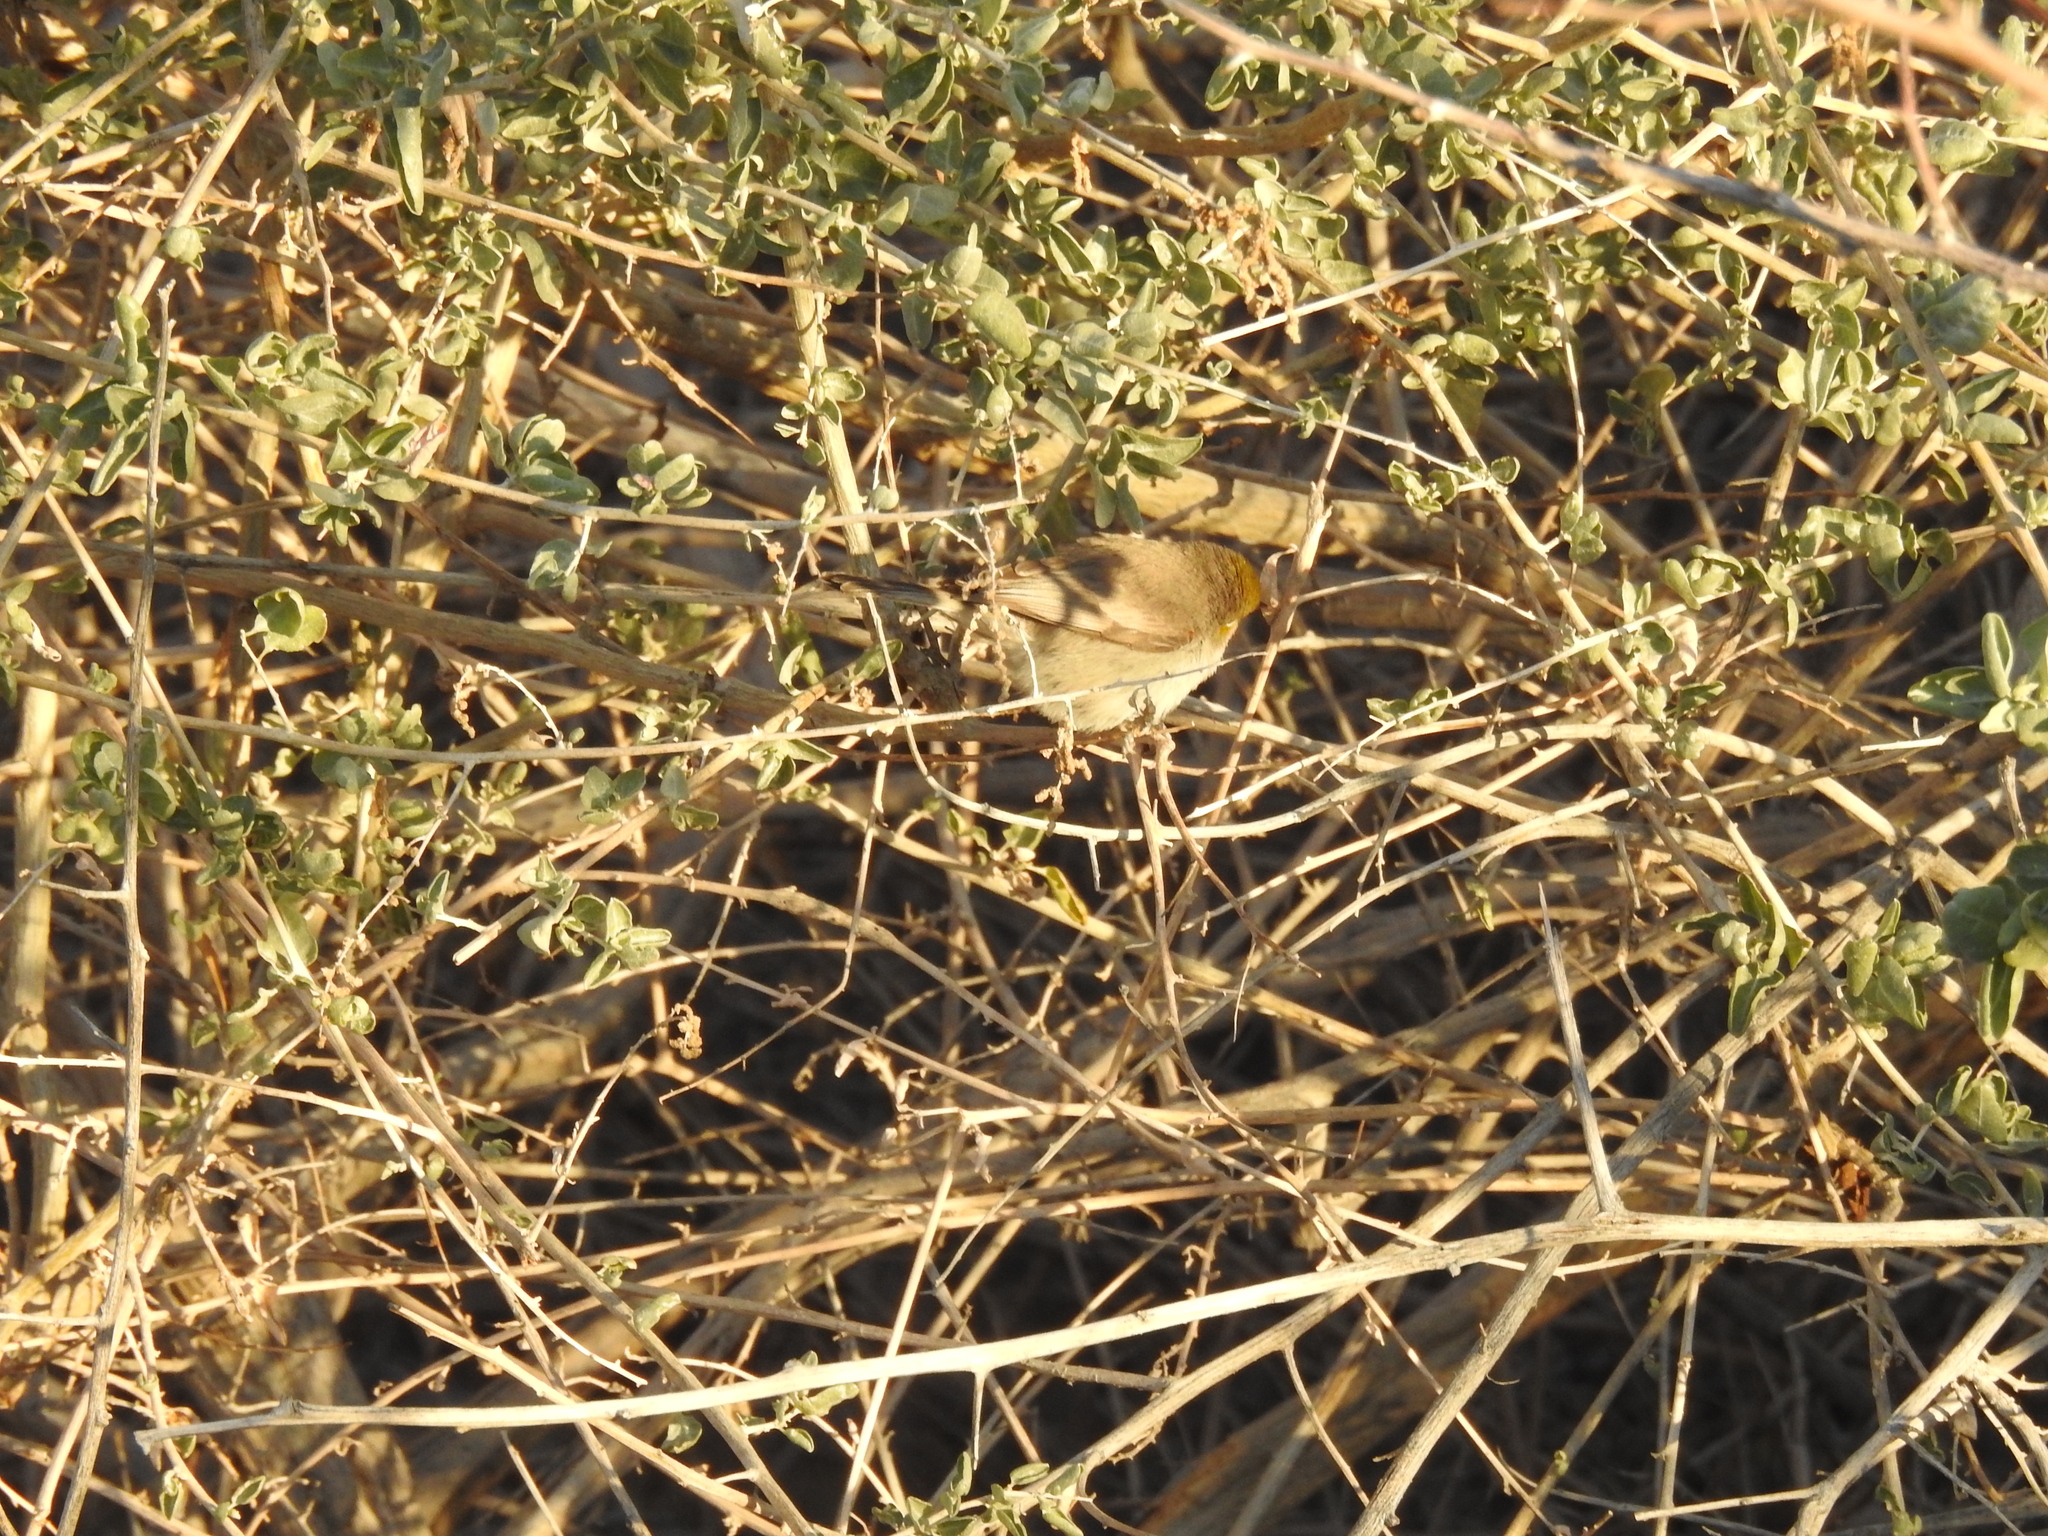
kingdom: Animalia
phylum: Chordata
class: Aves
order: Passeriformes
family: Remizidae
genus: Auriparus
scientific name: Auriparus flaviceps
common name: Verdin
